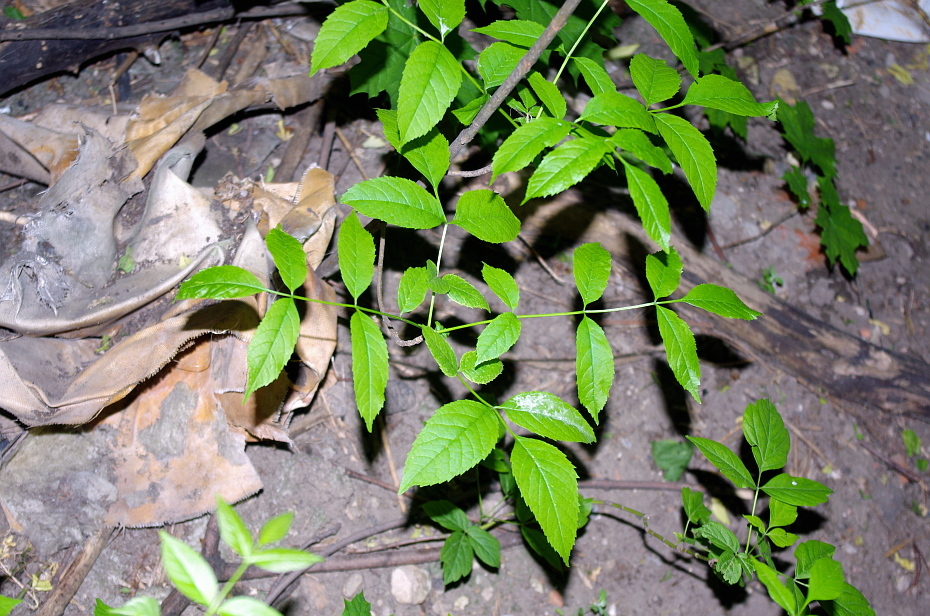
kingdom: Plantae
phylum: Tracheophyta
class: Magnoliopsida
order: Lamiales
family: Oleaceae
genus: Fraxinus
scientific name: Fraxinus pennsylvanica
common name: Green ash
